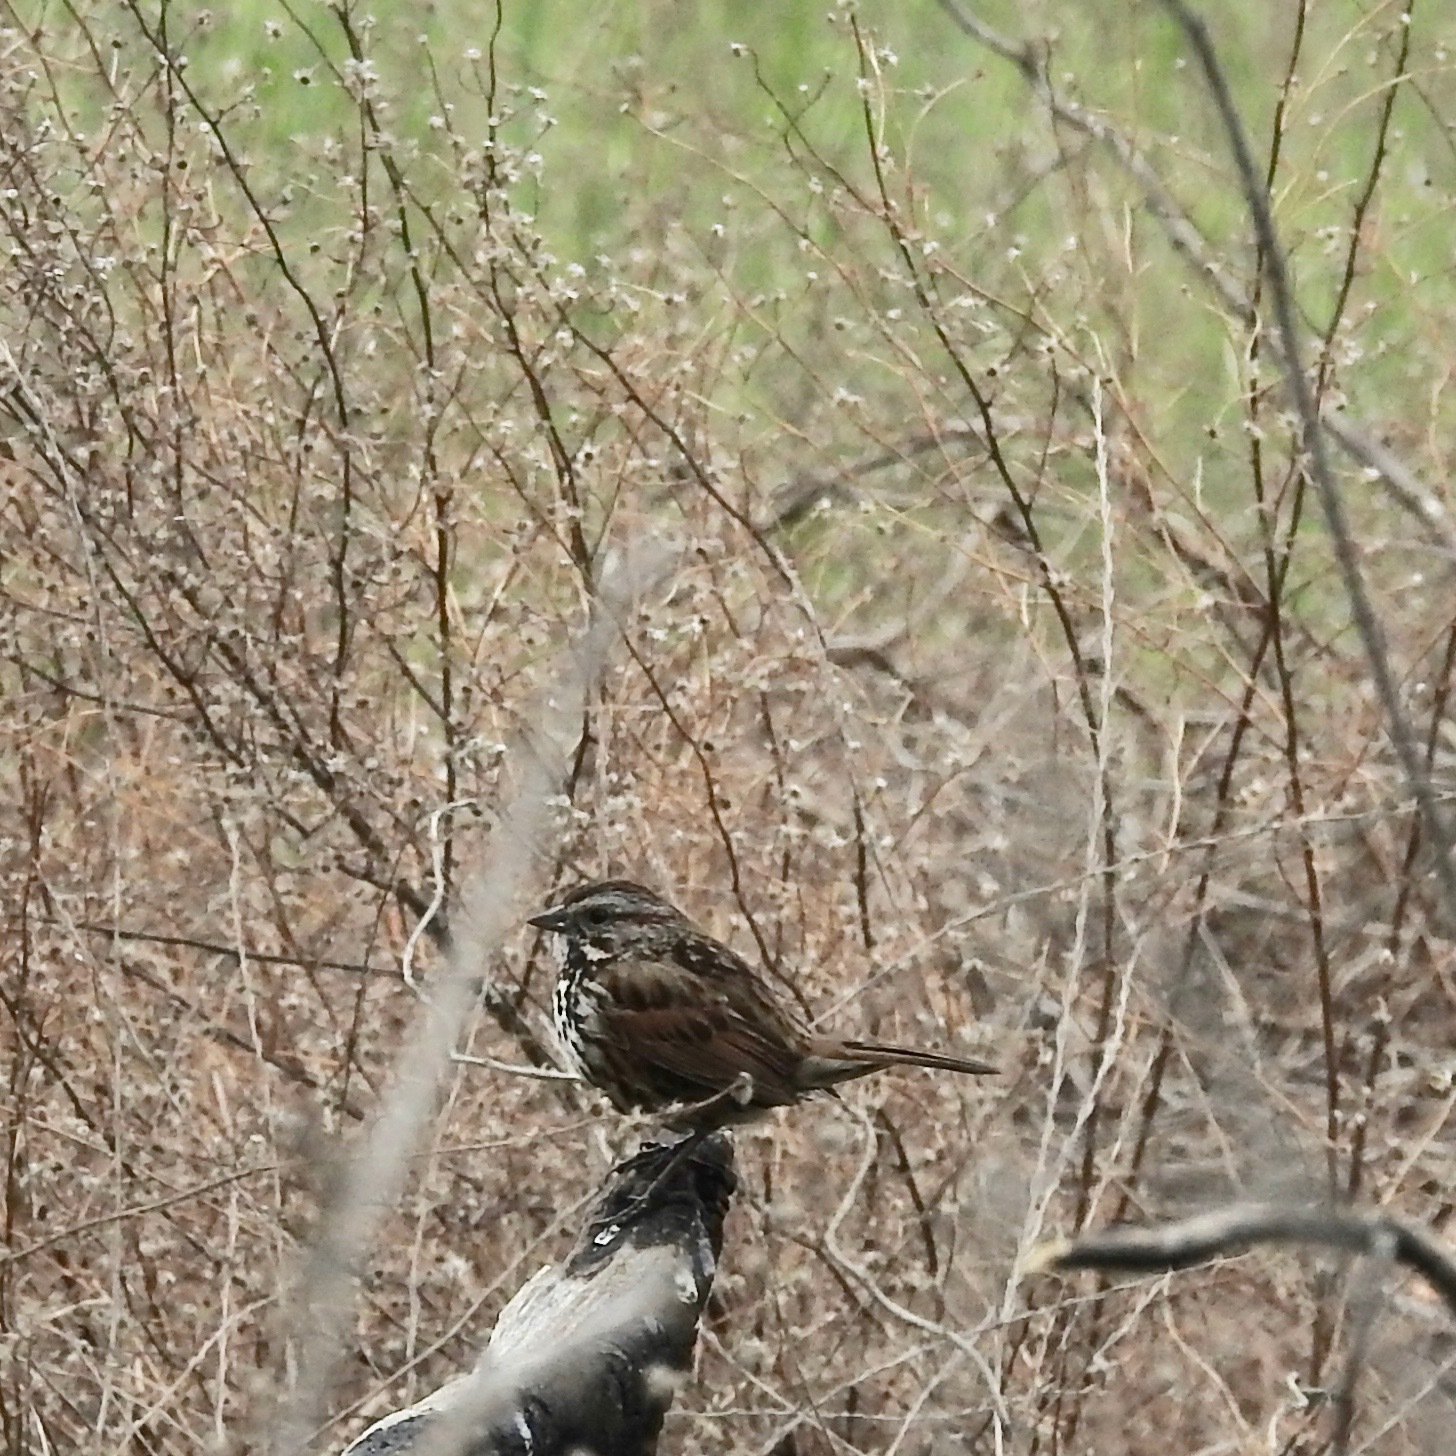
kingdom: Animalia
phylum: Chordata
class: Aves
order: Passeriformes
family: Passerellidae
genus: Melospiza
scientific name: Melospiza melodia
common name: Song sparrow
